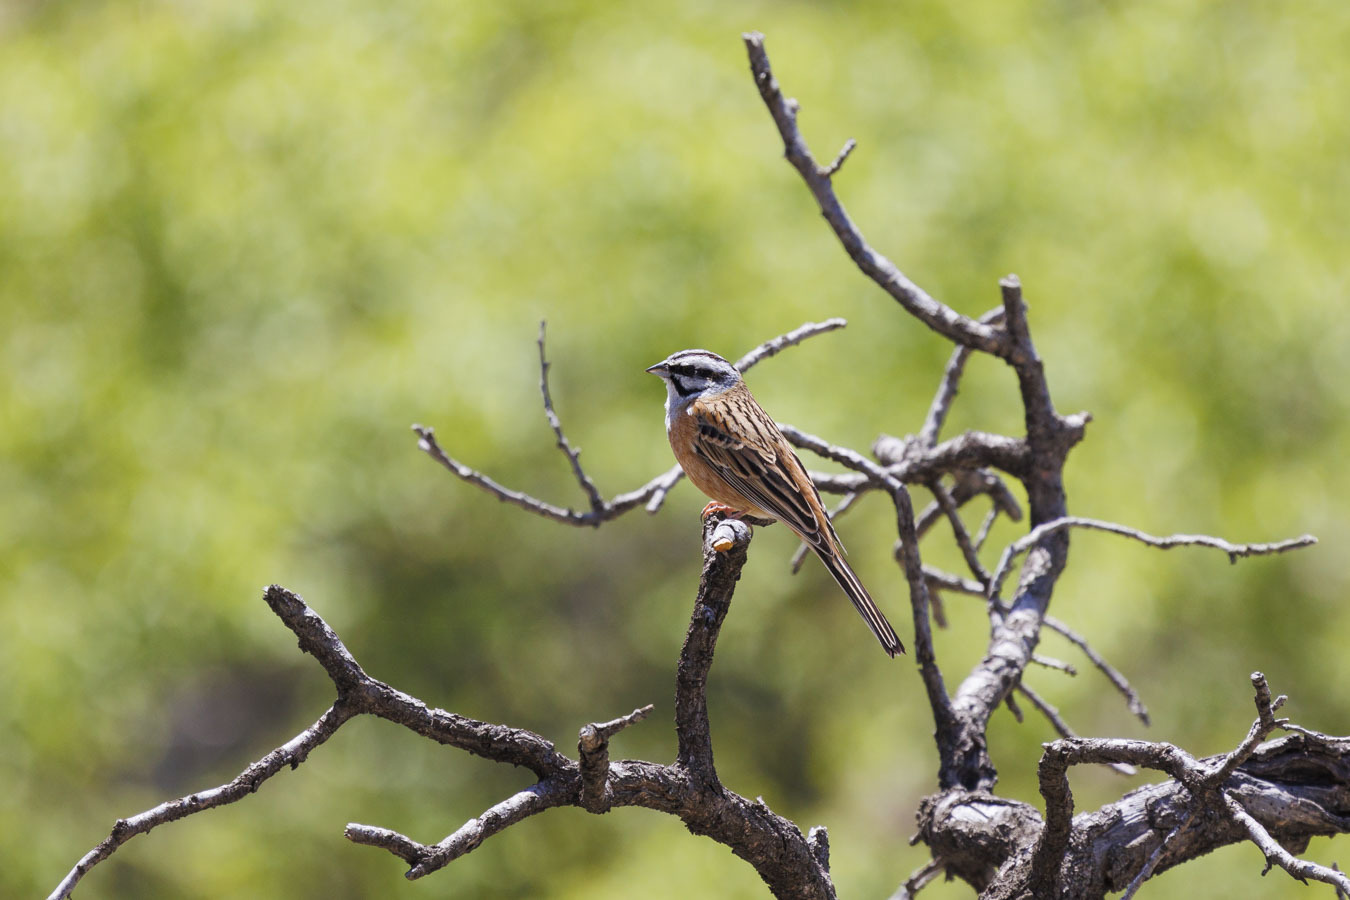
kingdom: Animalia
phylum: Chordata
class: Aves
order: Passeriformes
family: Emberizidae
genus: Emberiza
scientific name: Emberiza cia
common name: Rock bunting
